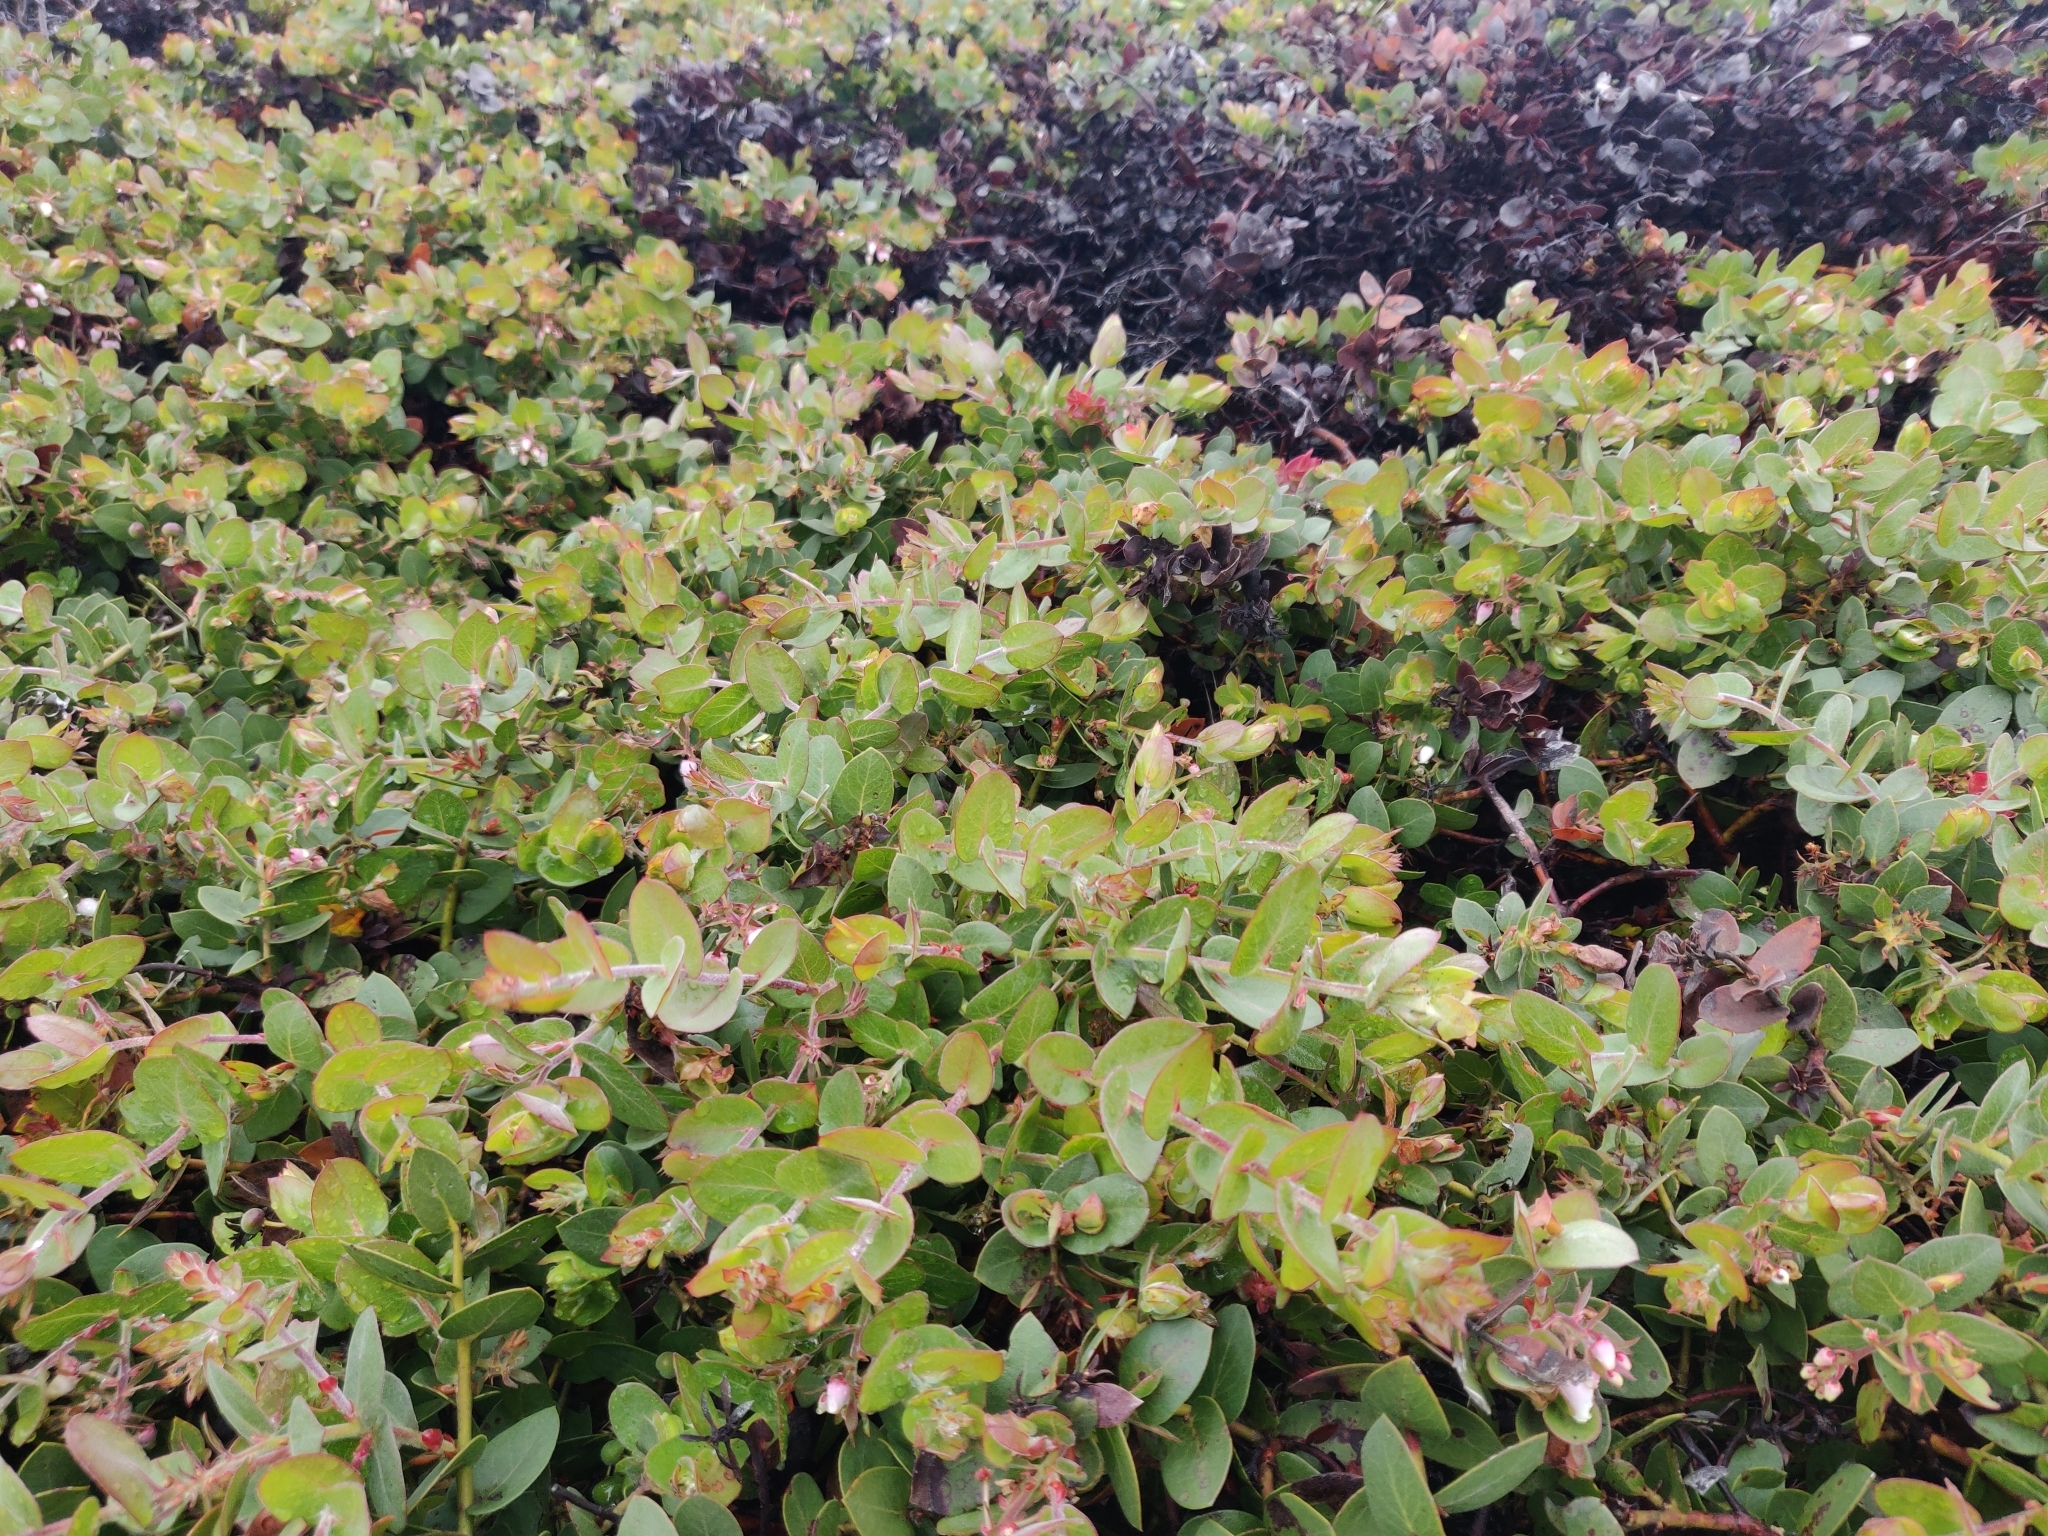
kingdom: Plantae
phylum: Tracheophyta
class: Magnoliopsida
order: Ericales
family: Ericaceae
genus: Arctostaphylos
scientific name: Arctostaphylos cruzensis
